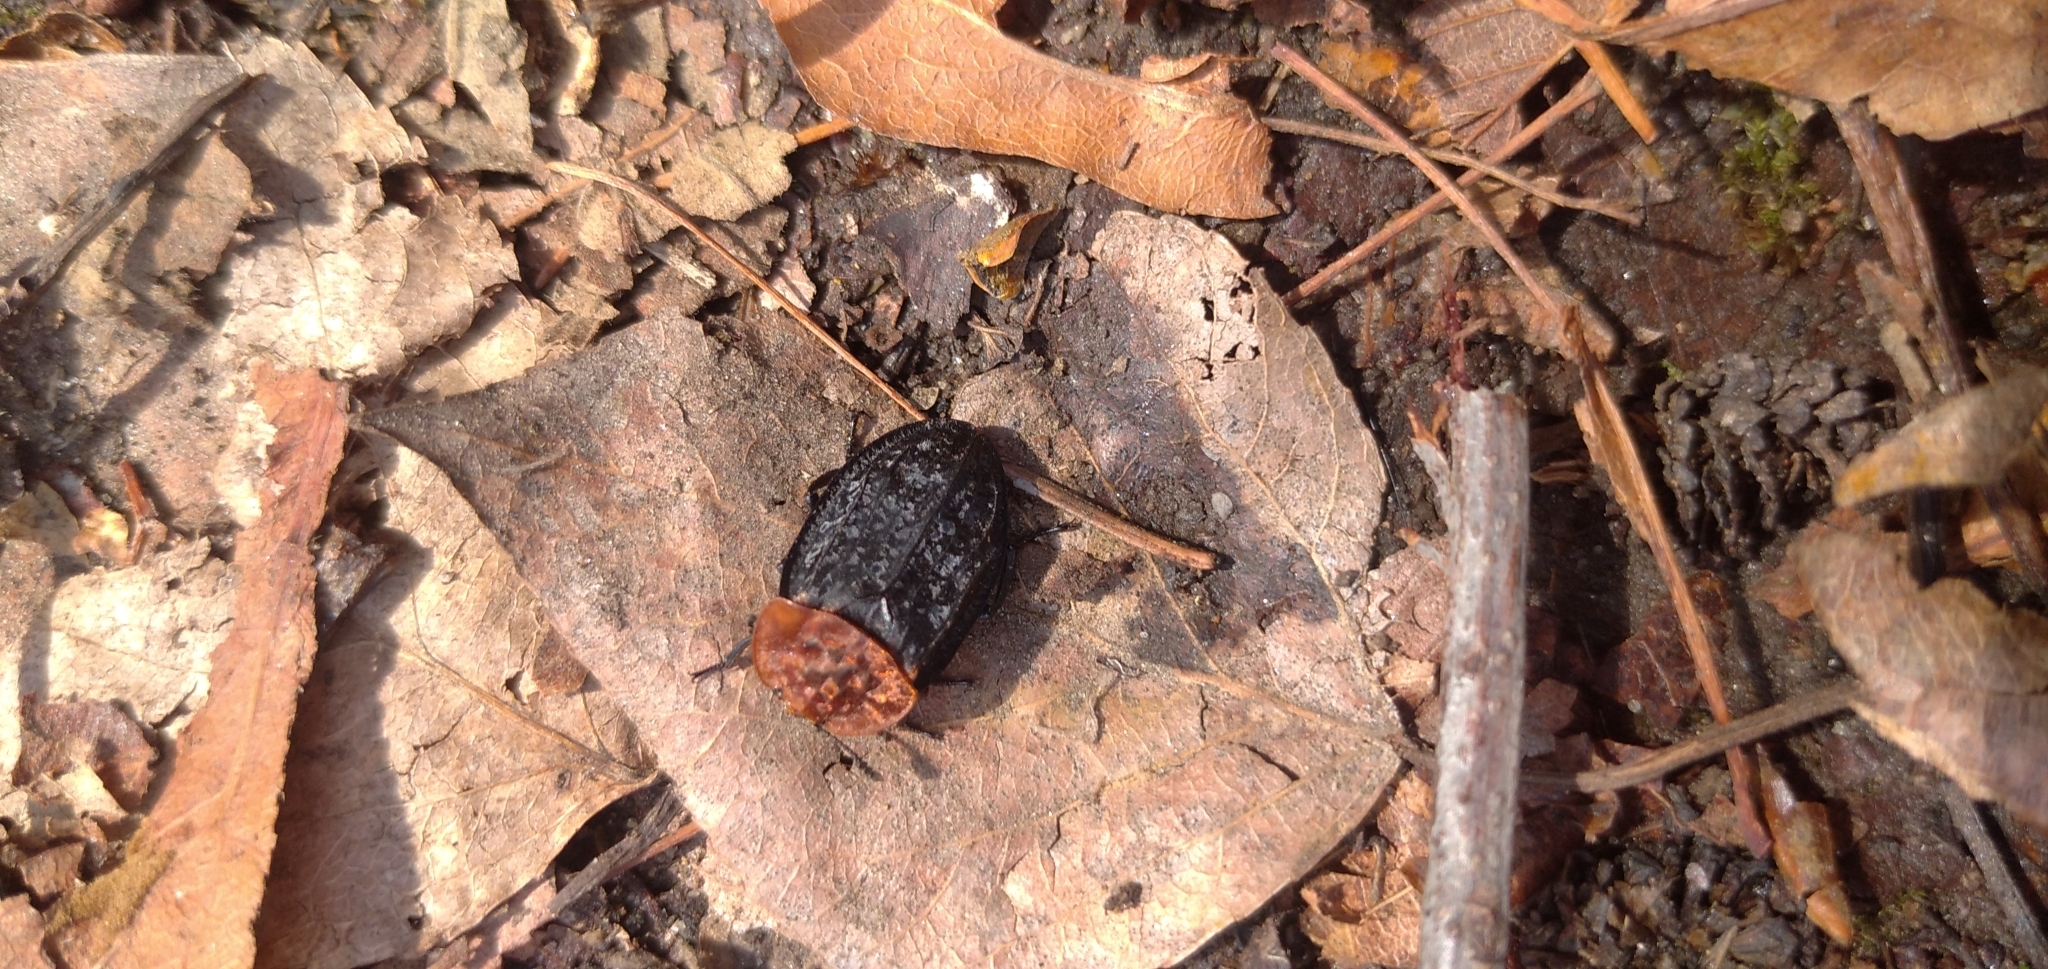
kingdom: Animalia
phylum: Arthropoda
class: Insecta
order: Coleoptera
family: Staphylinidae
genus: Oiceoptoma
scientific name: Oiceoptoma thoracicum
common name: Red-breasted carrion beetle
